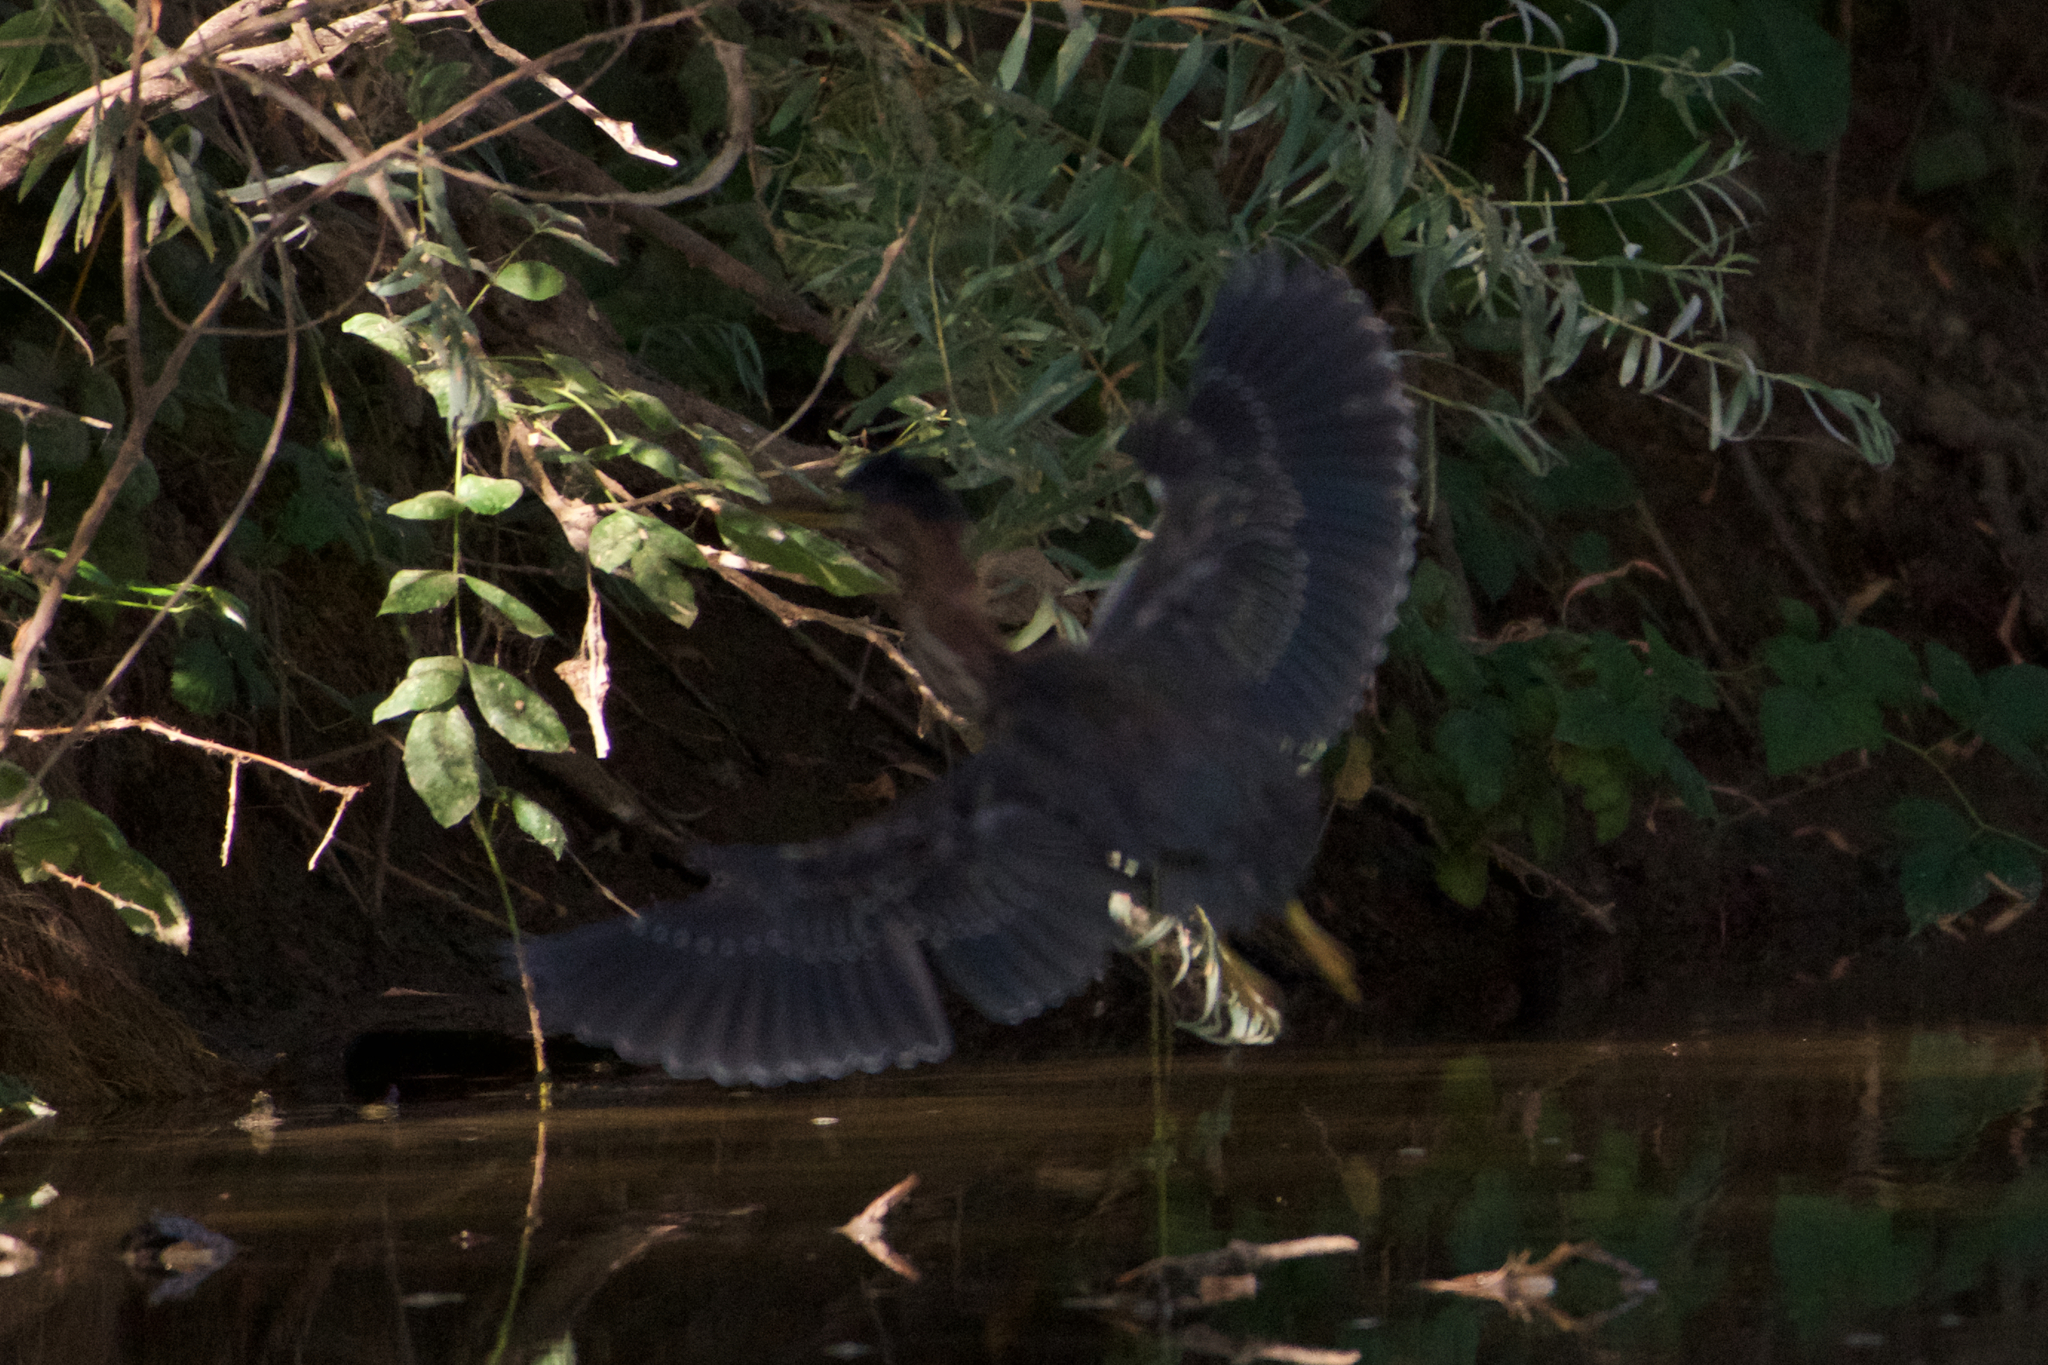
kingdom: Animalia
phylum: Chordata
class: Aves
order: Pelecaniformes
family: Ardeidae
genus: Butorides
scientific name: Butorides virescens
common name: Green heron
